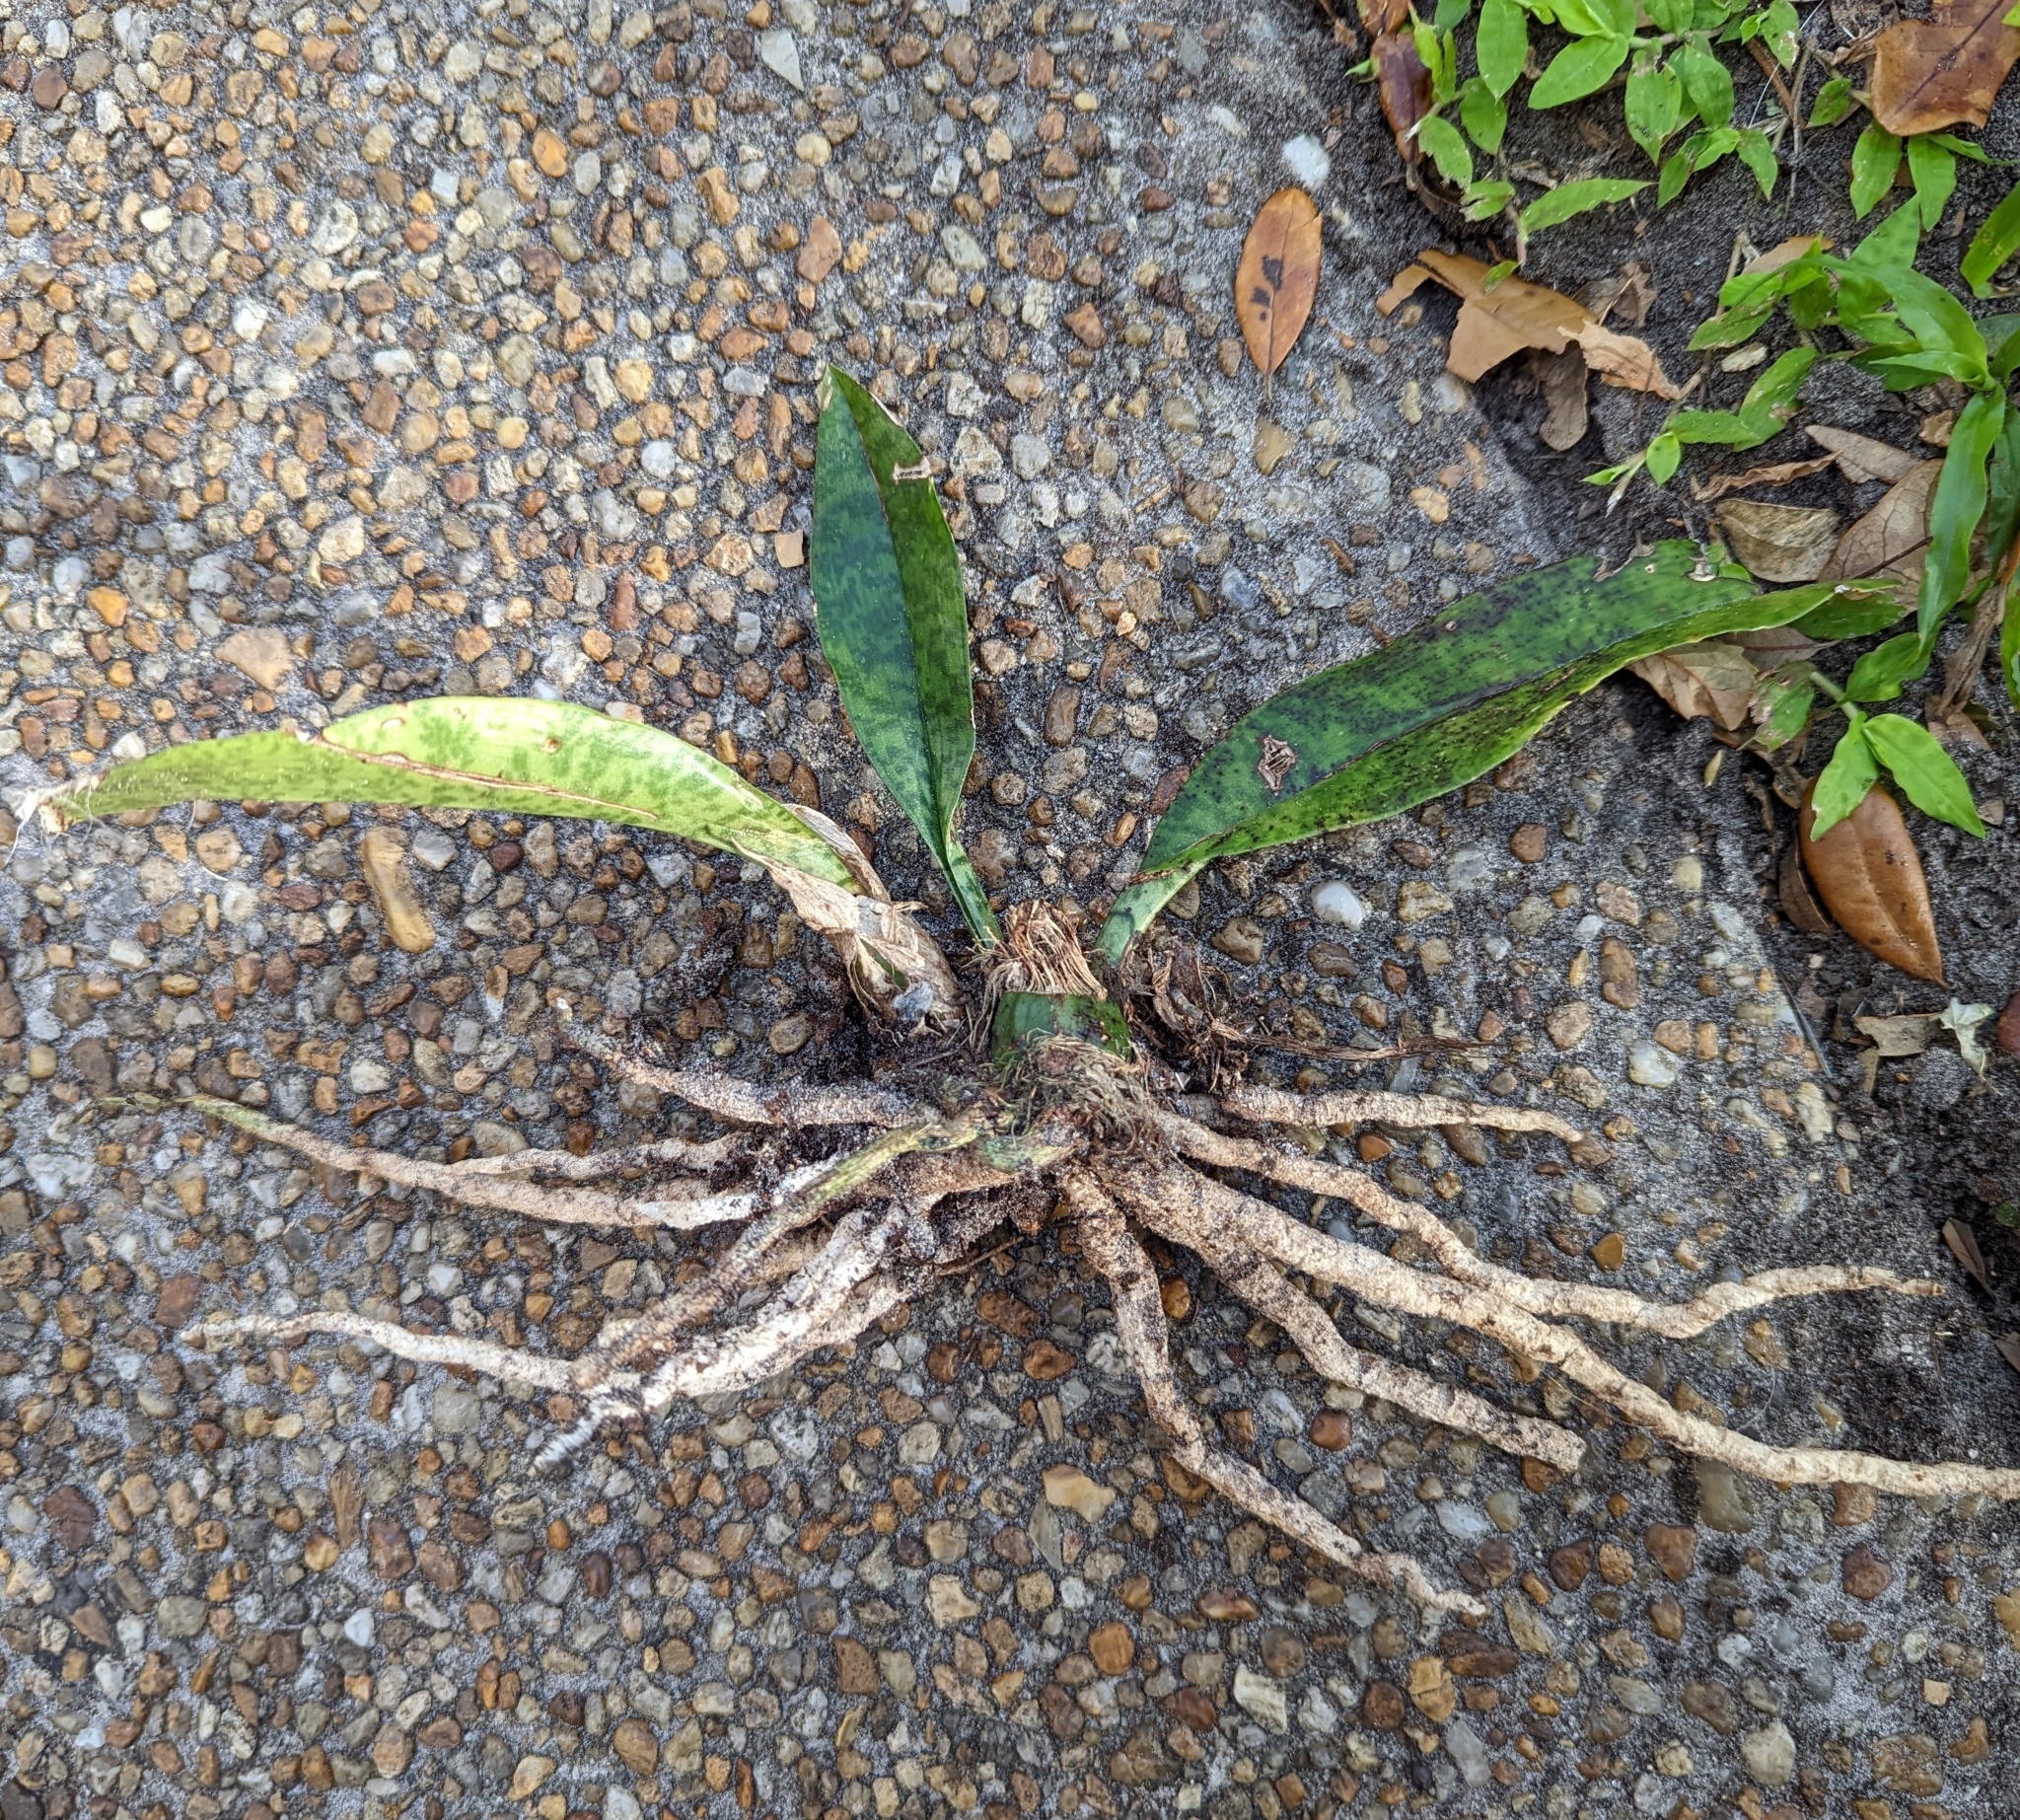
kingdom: Plantae
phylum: Tracheophyta
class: Liliopsida
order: Asparagales
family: Orchidaceae
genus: Eulophia
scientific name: Eulophia maculata
